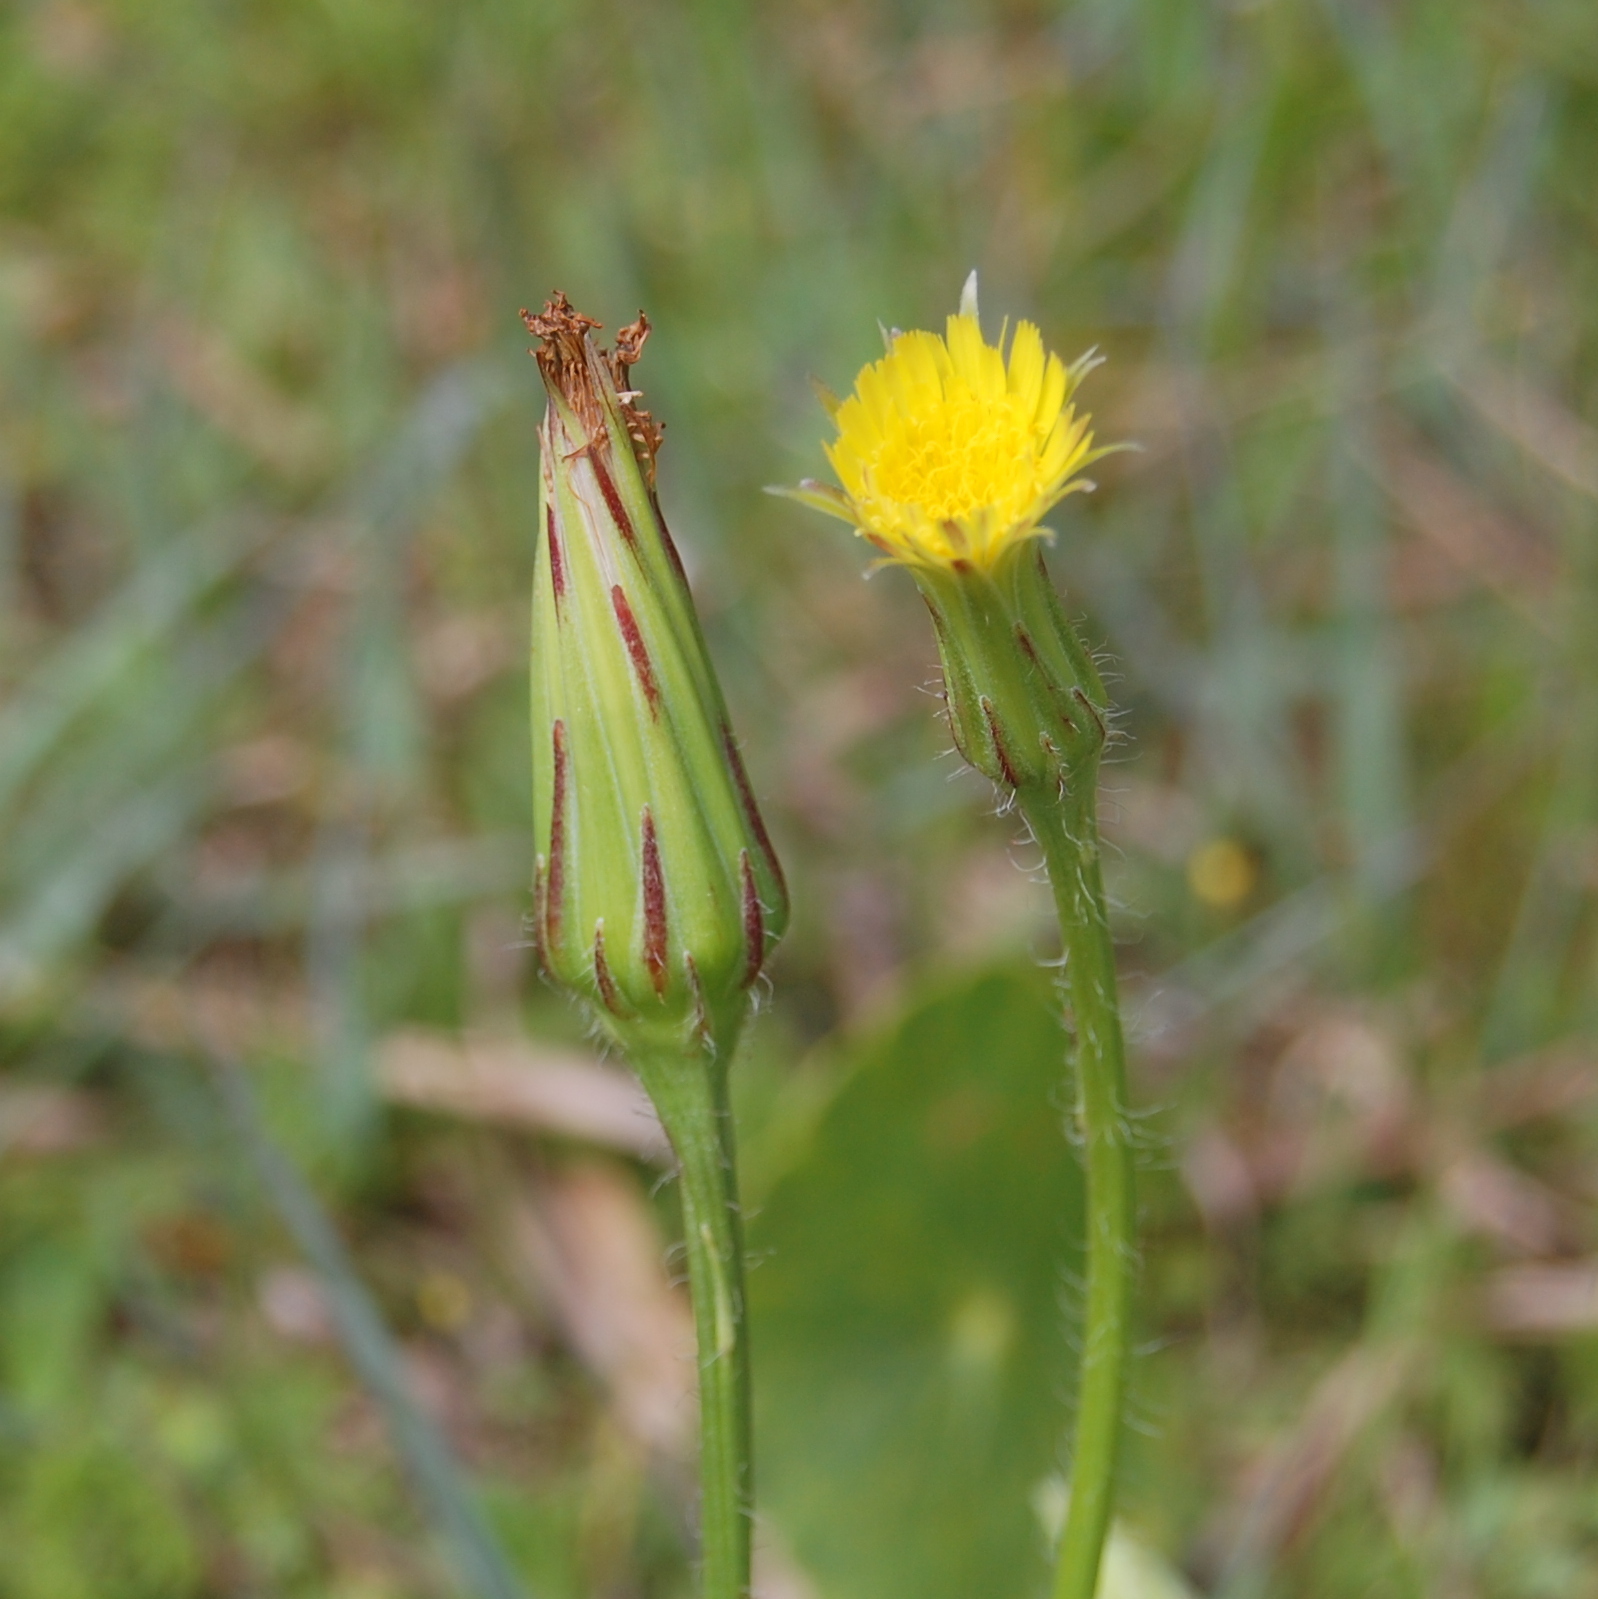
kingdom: Plantae
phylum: Tracheophyta
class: Magnoliopsida
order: Asterales
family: Asteraceae
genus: Hypochaeris
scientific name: Hypochaeris megapotamica
